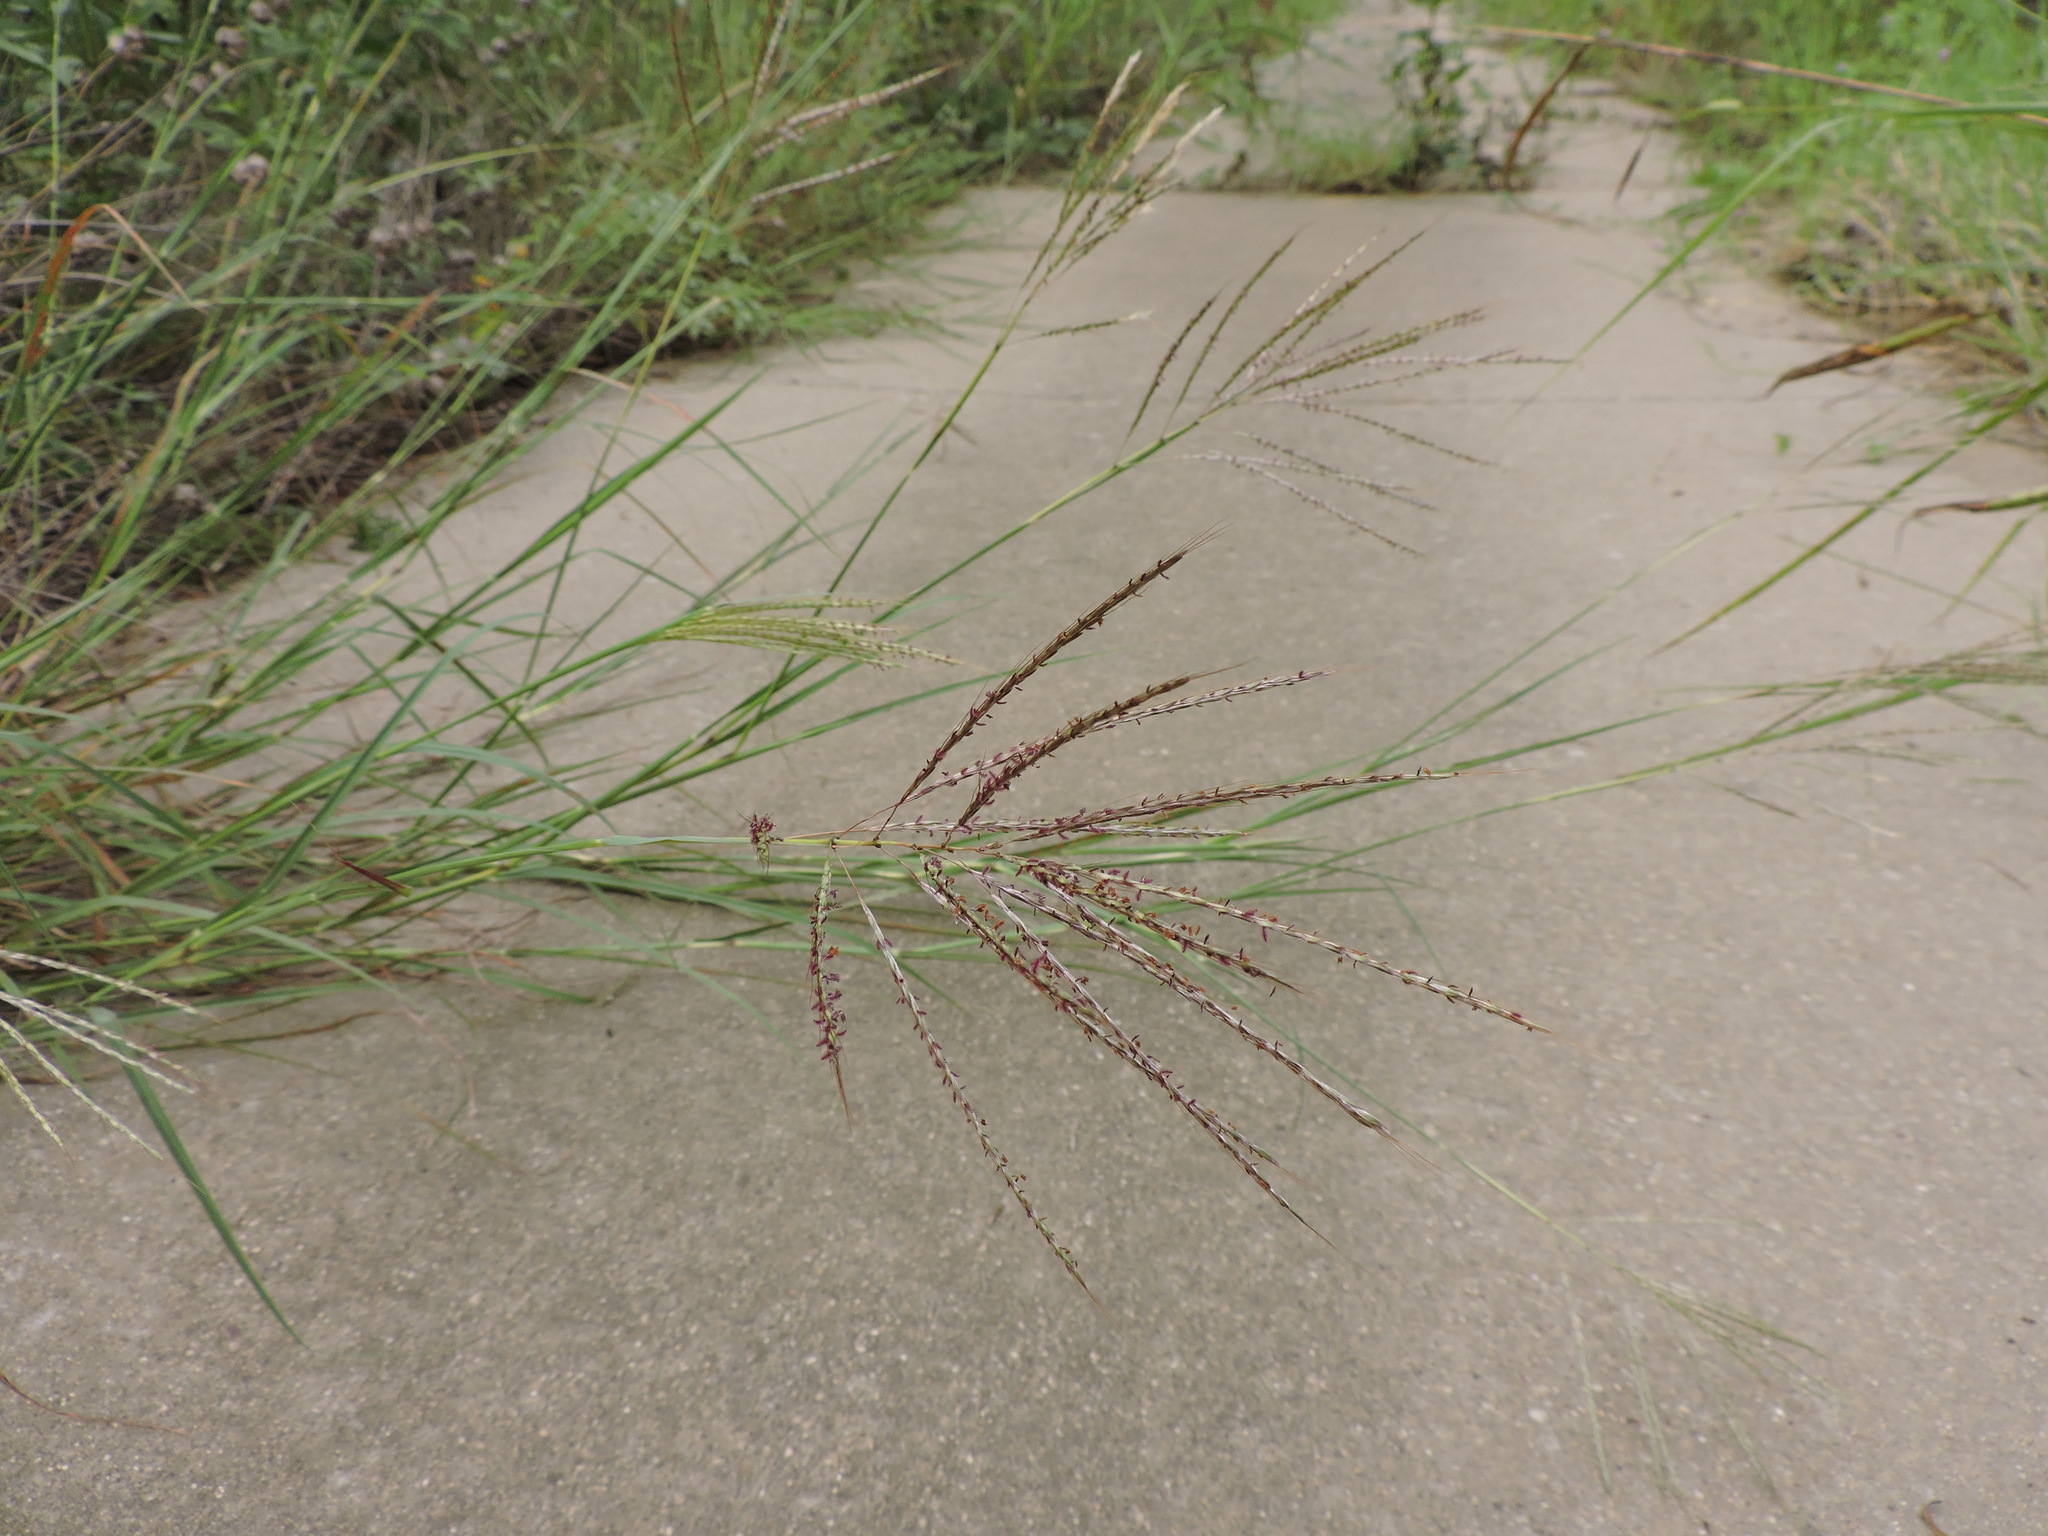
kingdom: Plantae
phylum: Tracheophyta
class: Liliopsida
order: Poales
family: Poaceae
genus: Bothriochloa
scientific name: Bothriochloa ischaemum
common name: Yellow bluestem
